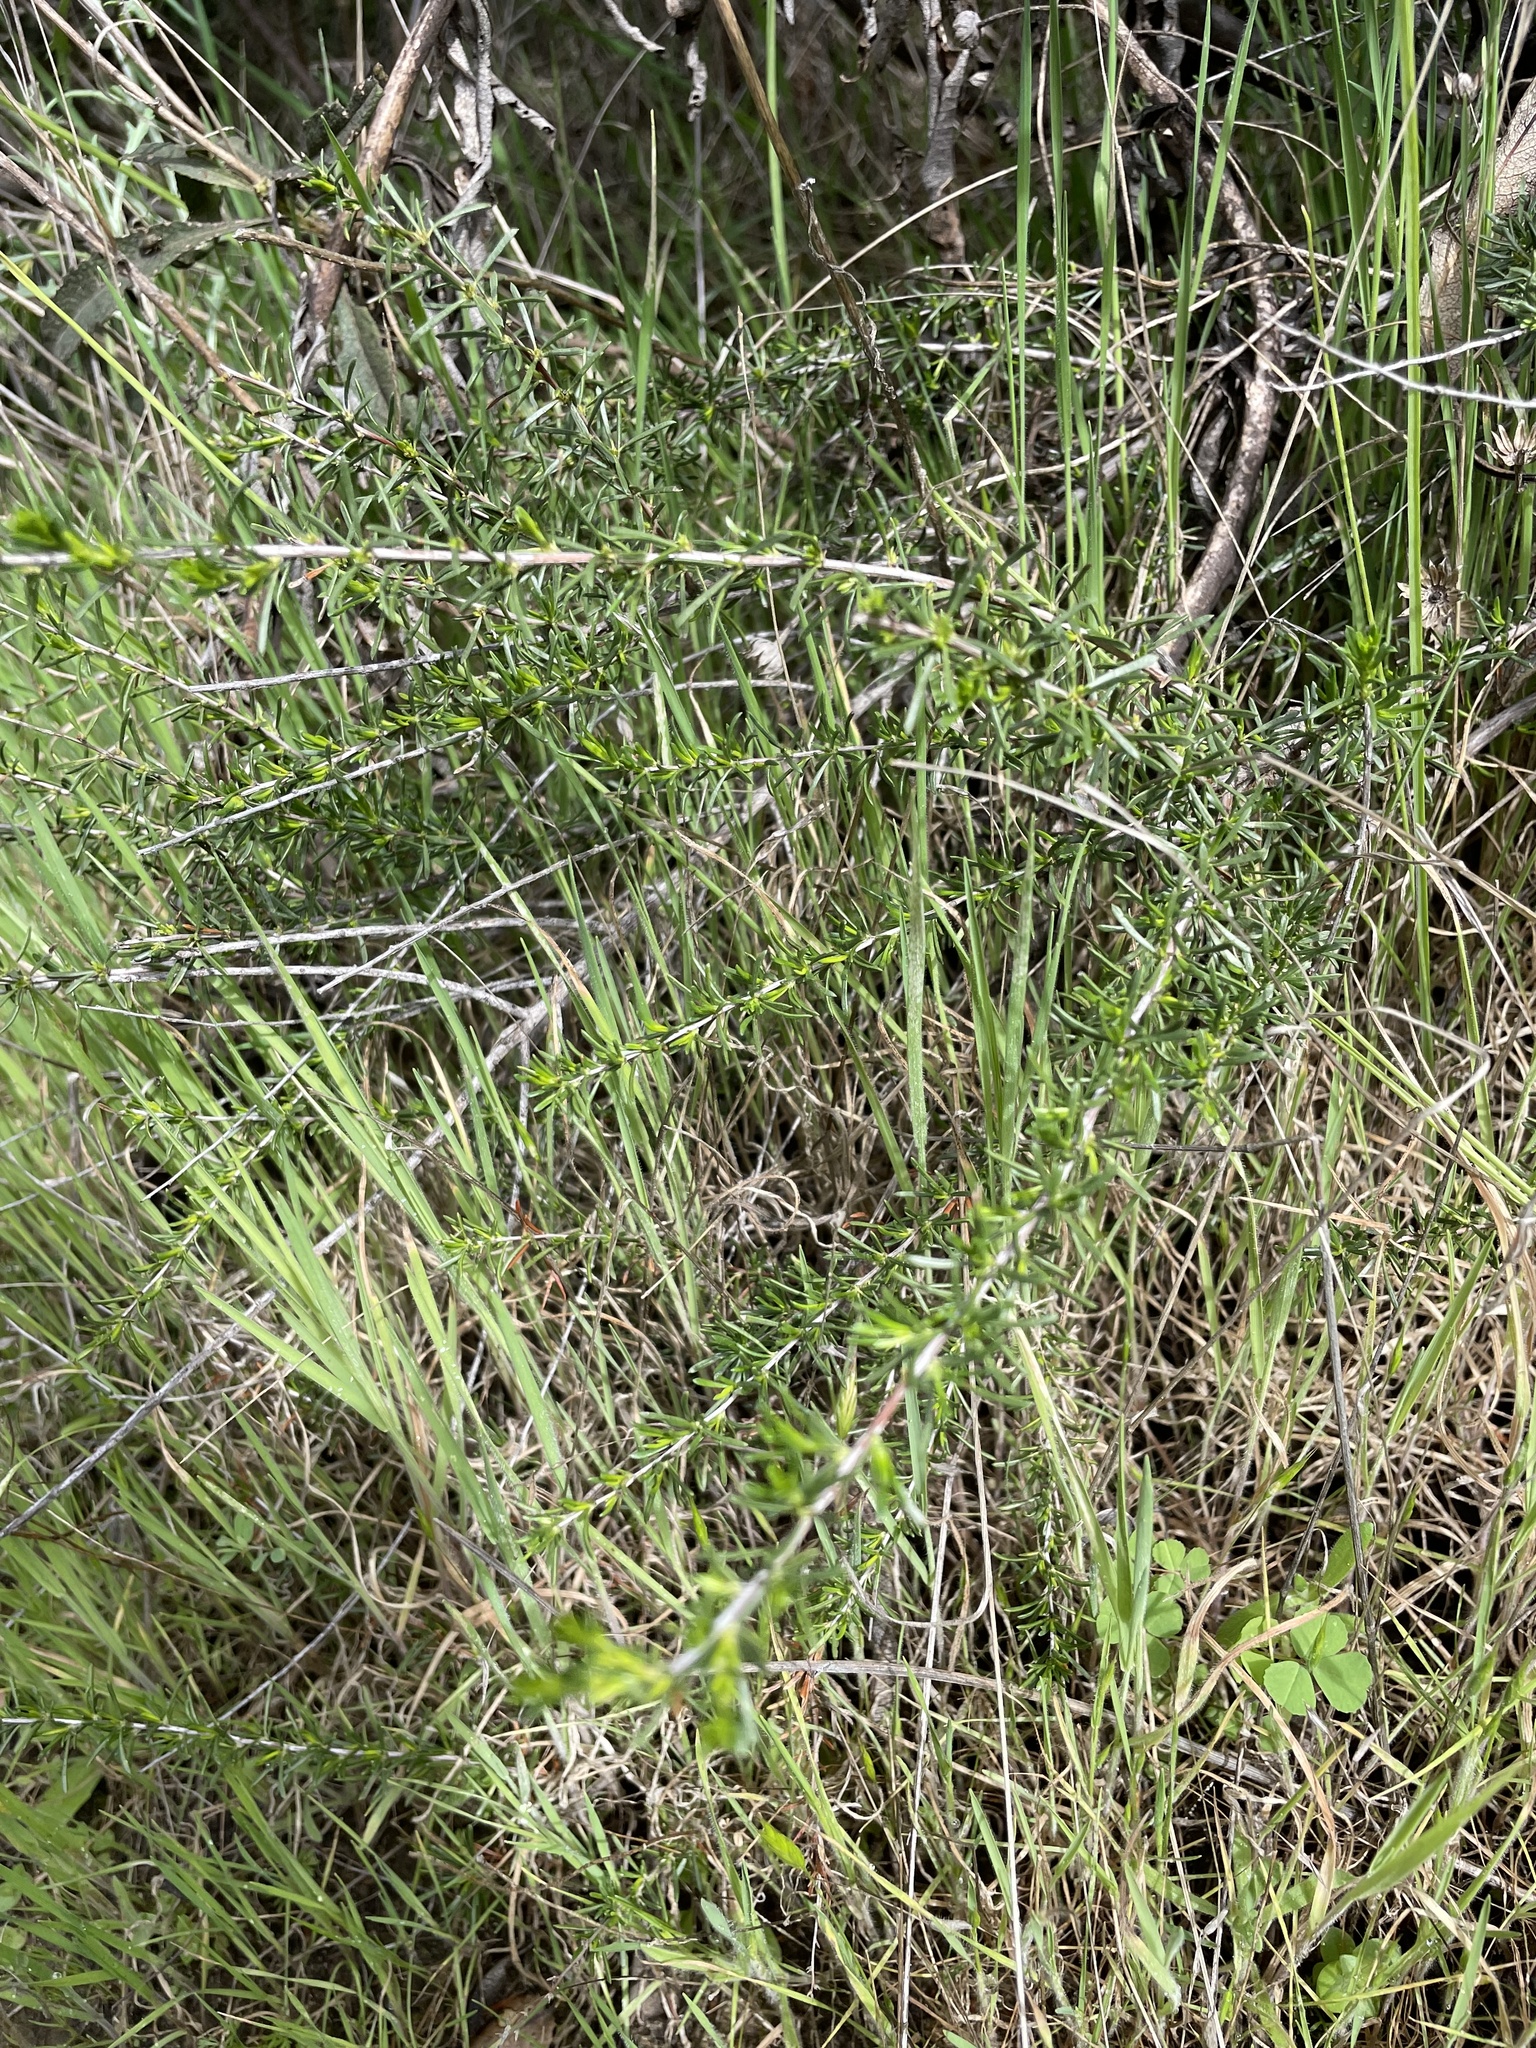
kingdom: Plantae
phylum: Tracheophyta
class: Magnoliopsida
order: Rosales
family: Rosaceae
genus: Adenostoma
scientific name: Adenostoma fasciculatum
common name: Chamise
